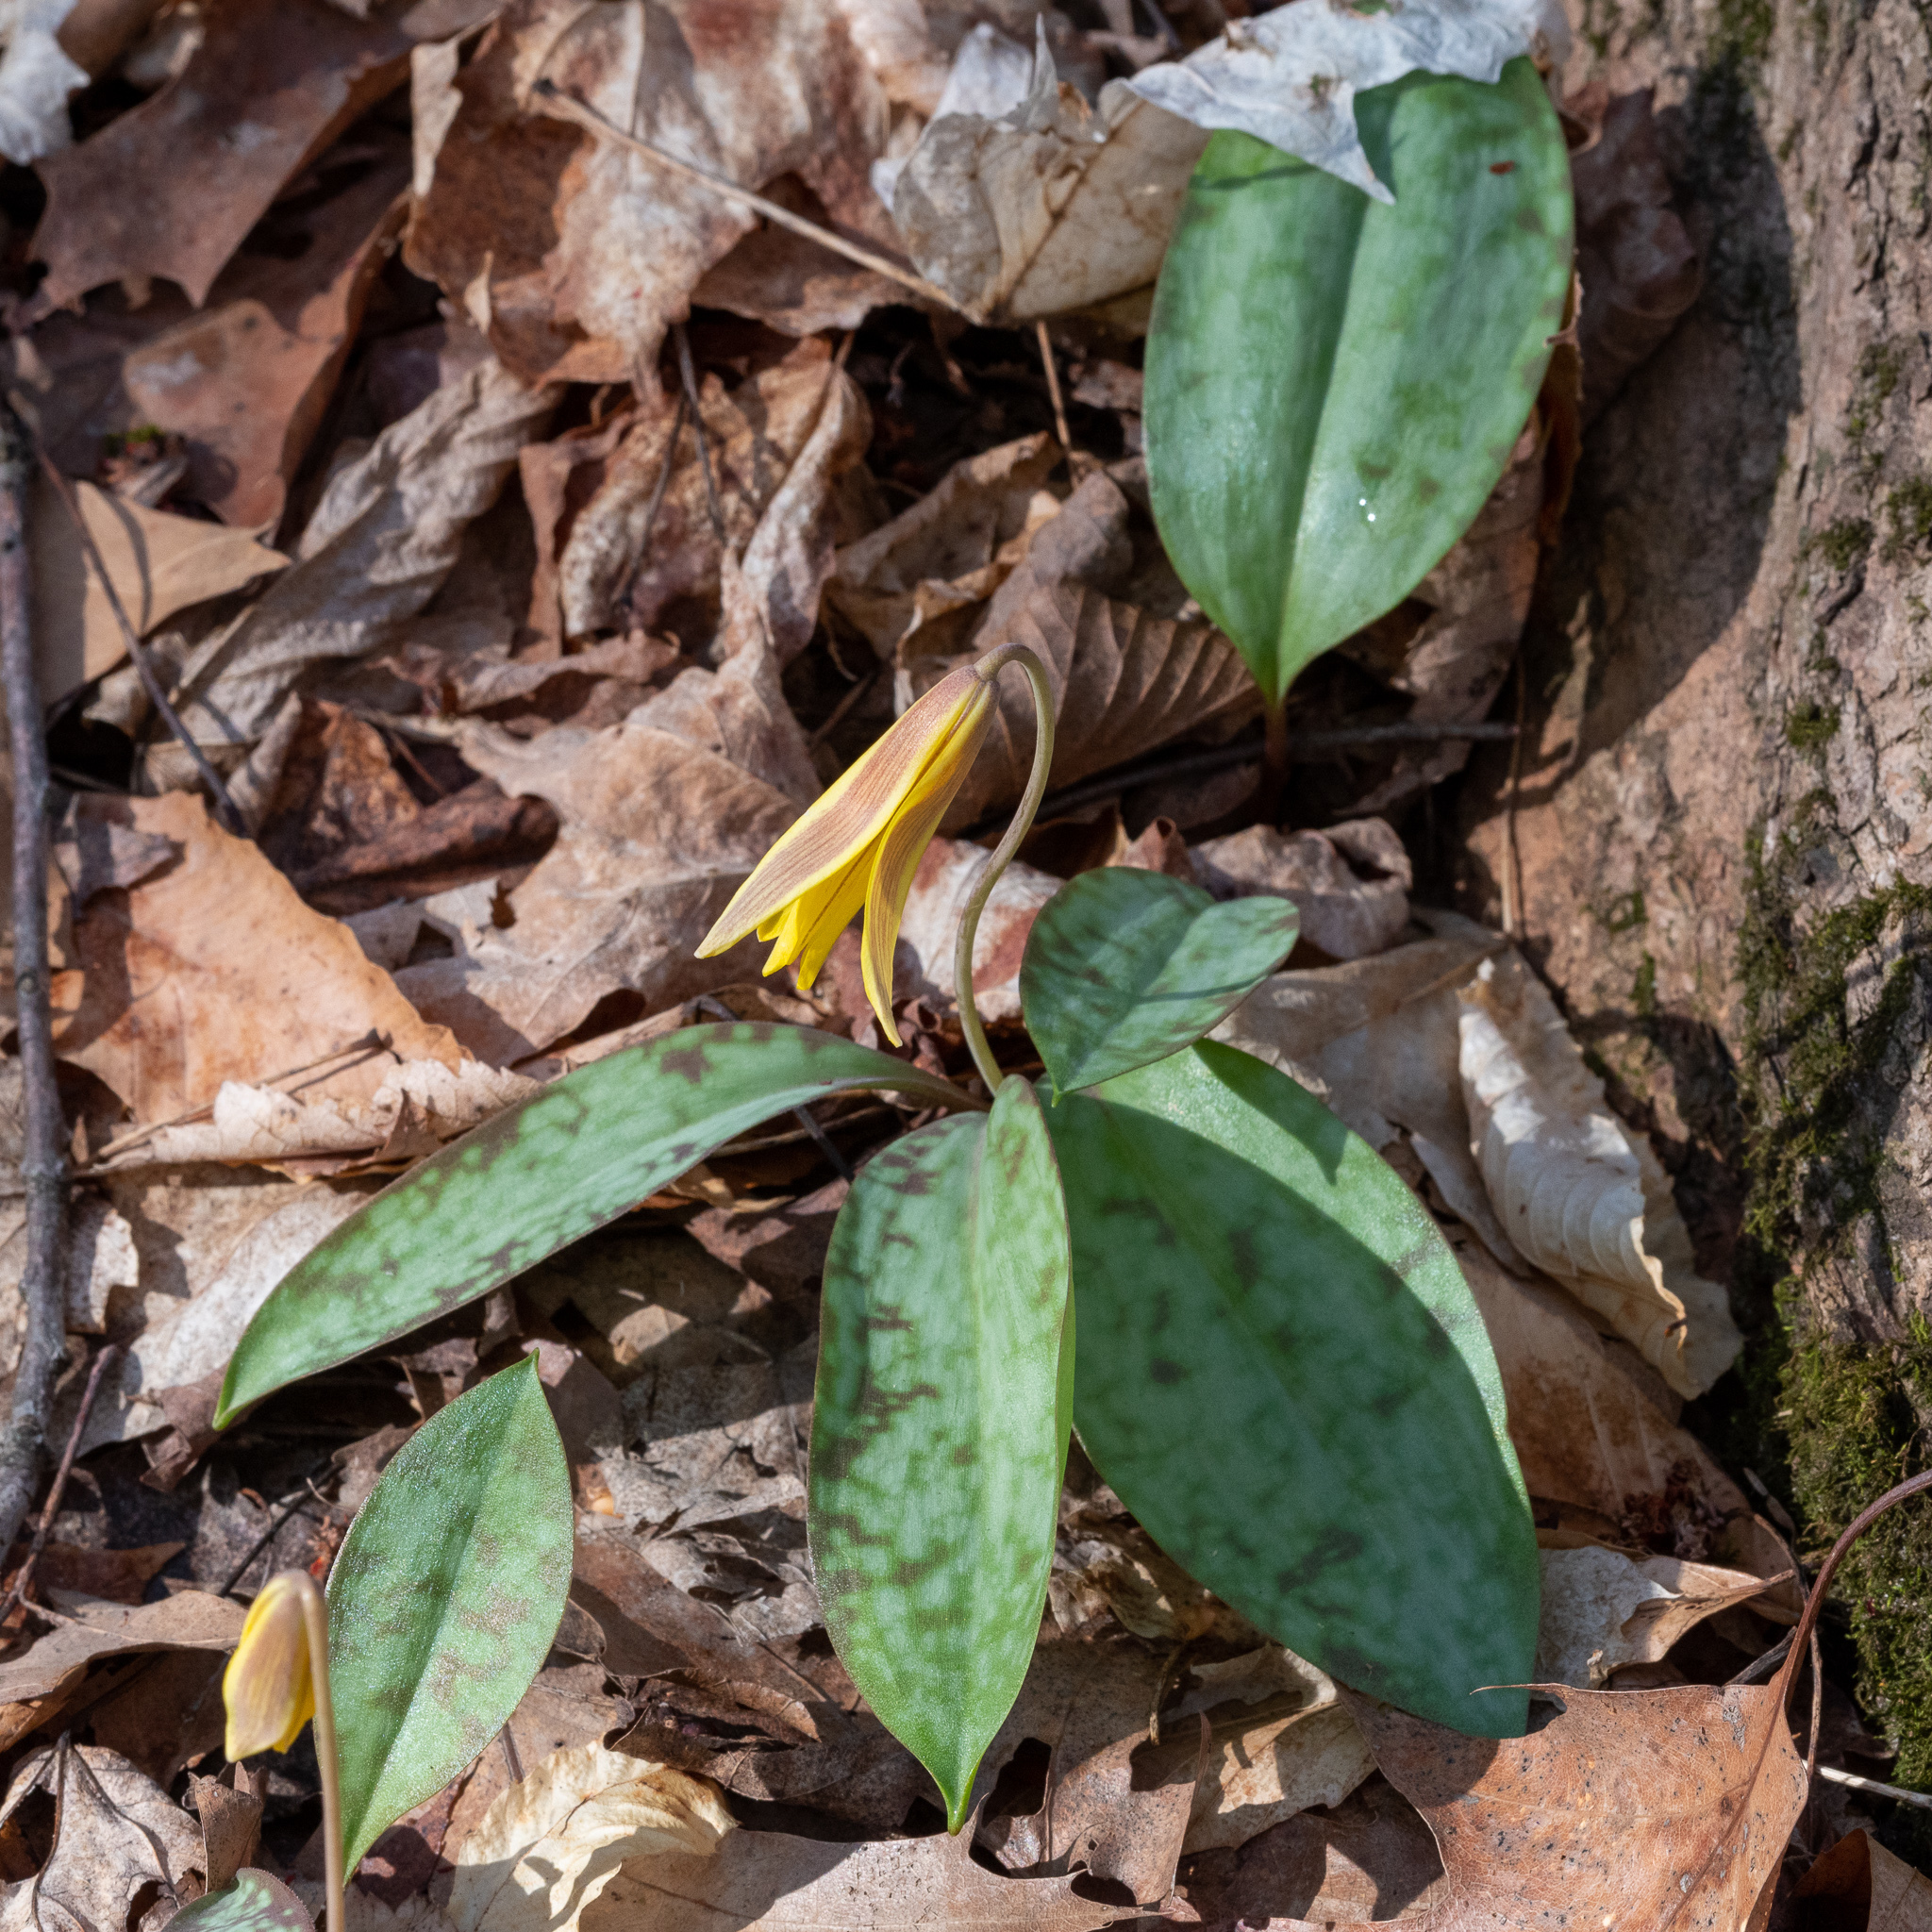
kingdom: Plantae
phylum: Tracheophyta
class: Liliopsida
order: Liliales
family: Liliaceae
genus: Erythronium
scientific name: Erythronium americanum
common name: Yellow adder's-tongue
